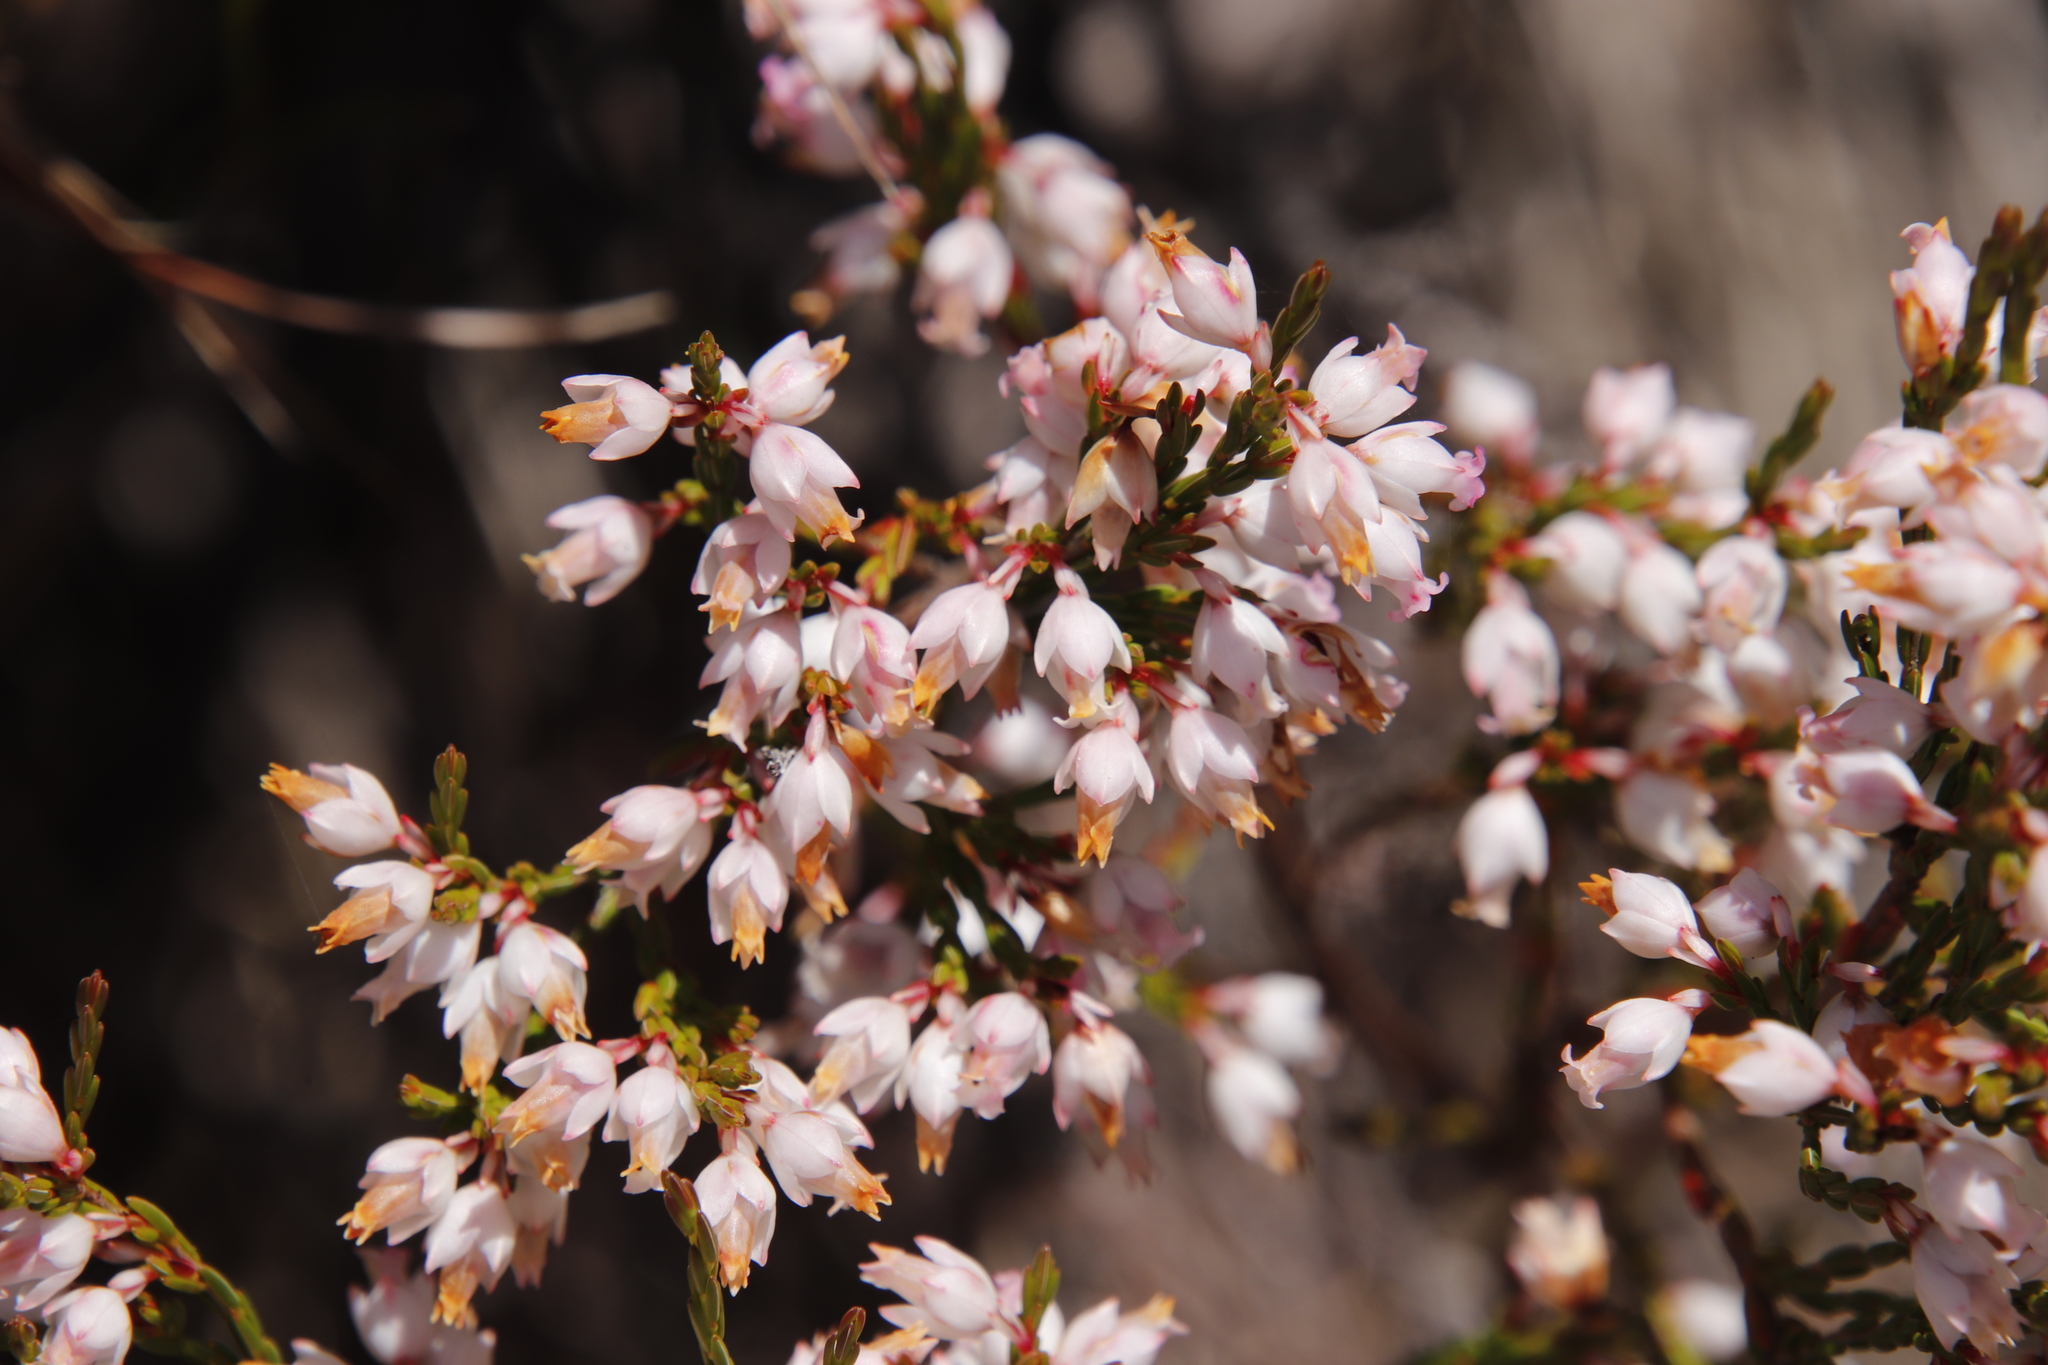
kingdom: Plantae
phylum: Tracheophyta
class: Magnoliopsida
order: Ericales
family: Ericaceae
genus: Erica
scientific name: Erica tenuifolia
